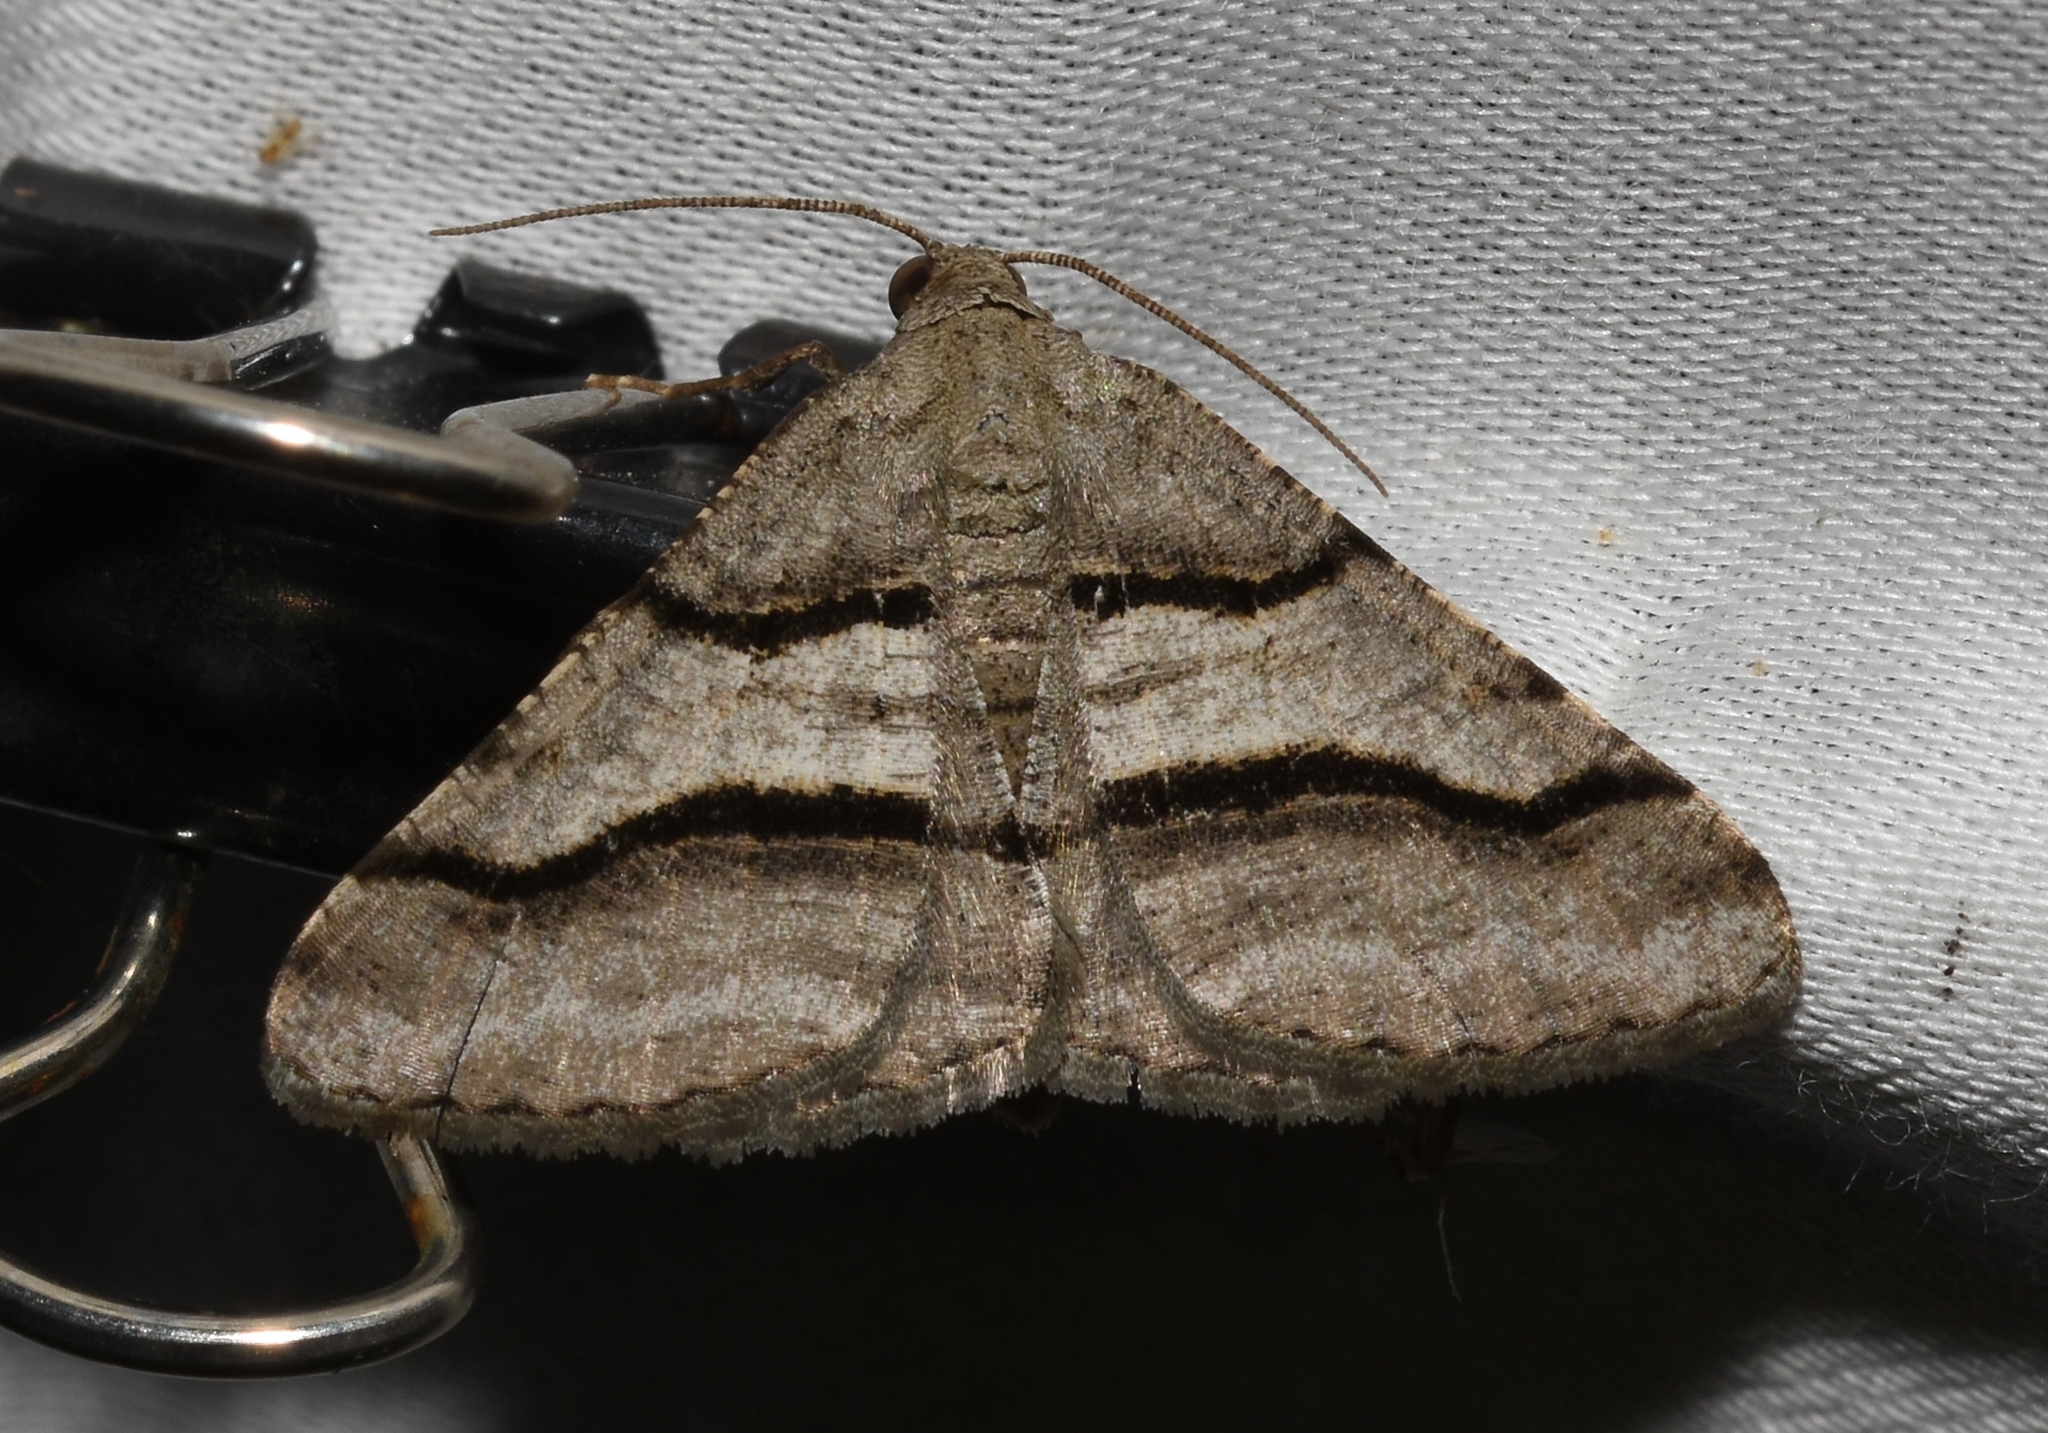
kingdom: Animalia
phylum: Arthropoda
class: Insecta
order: Lepidoptera
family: Geometridae
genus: Digrammia
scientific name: Digrammia continuata
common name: Curve-lined angle
